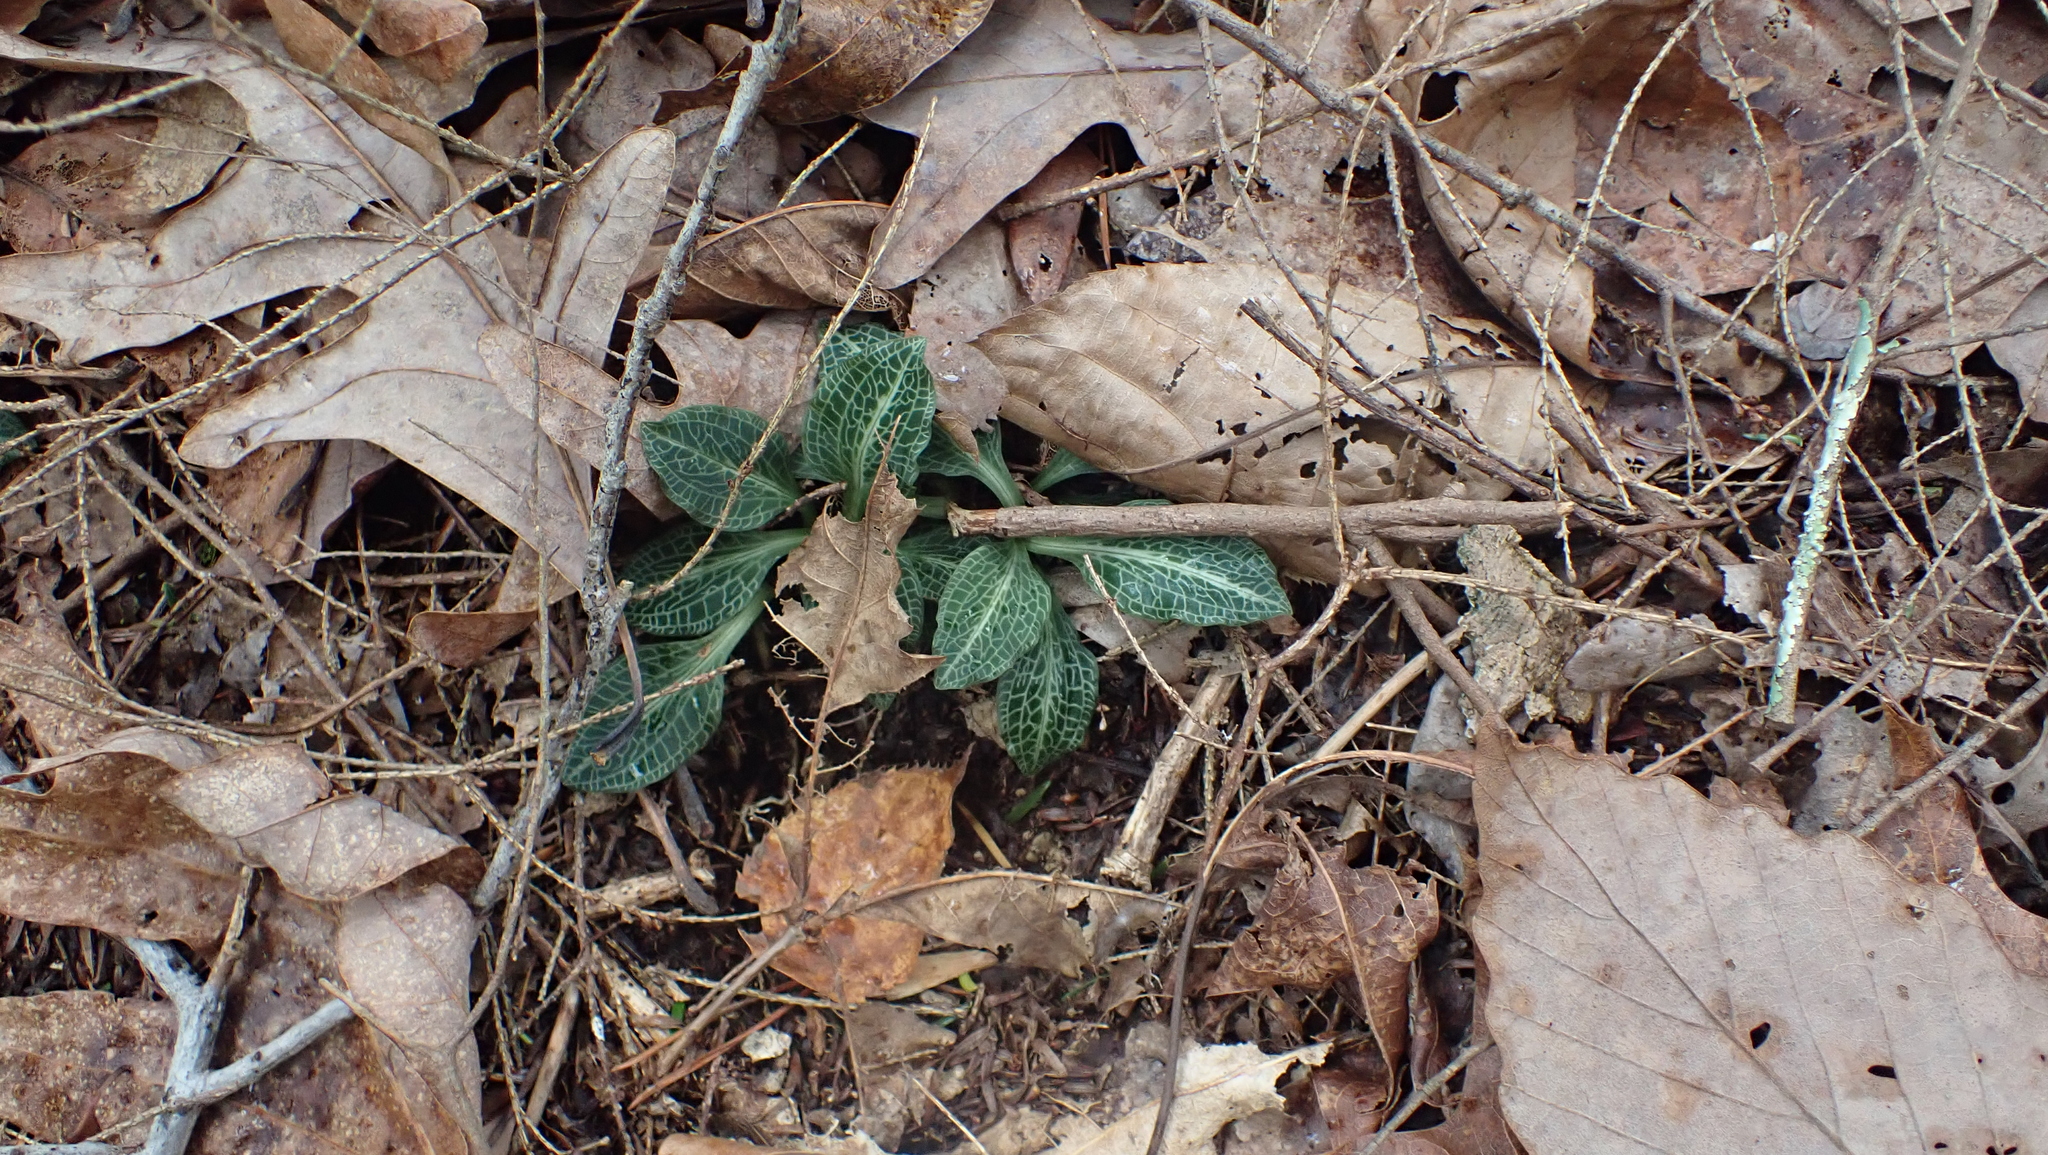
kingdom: Plantae
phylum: Tracheophyta
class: Liliopsida
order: Asparagales
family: Orchidaceae
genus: Goodyera
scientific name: Goodyera pubescens
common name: Downy rattlesnake-plantain
